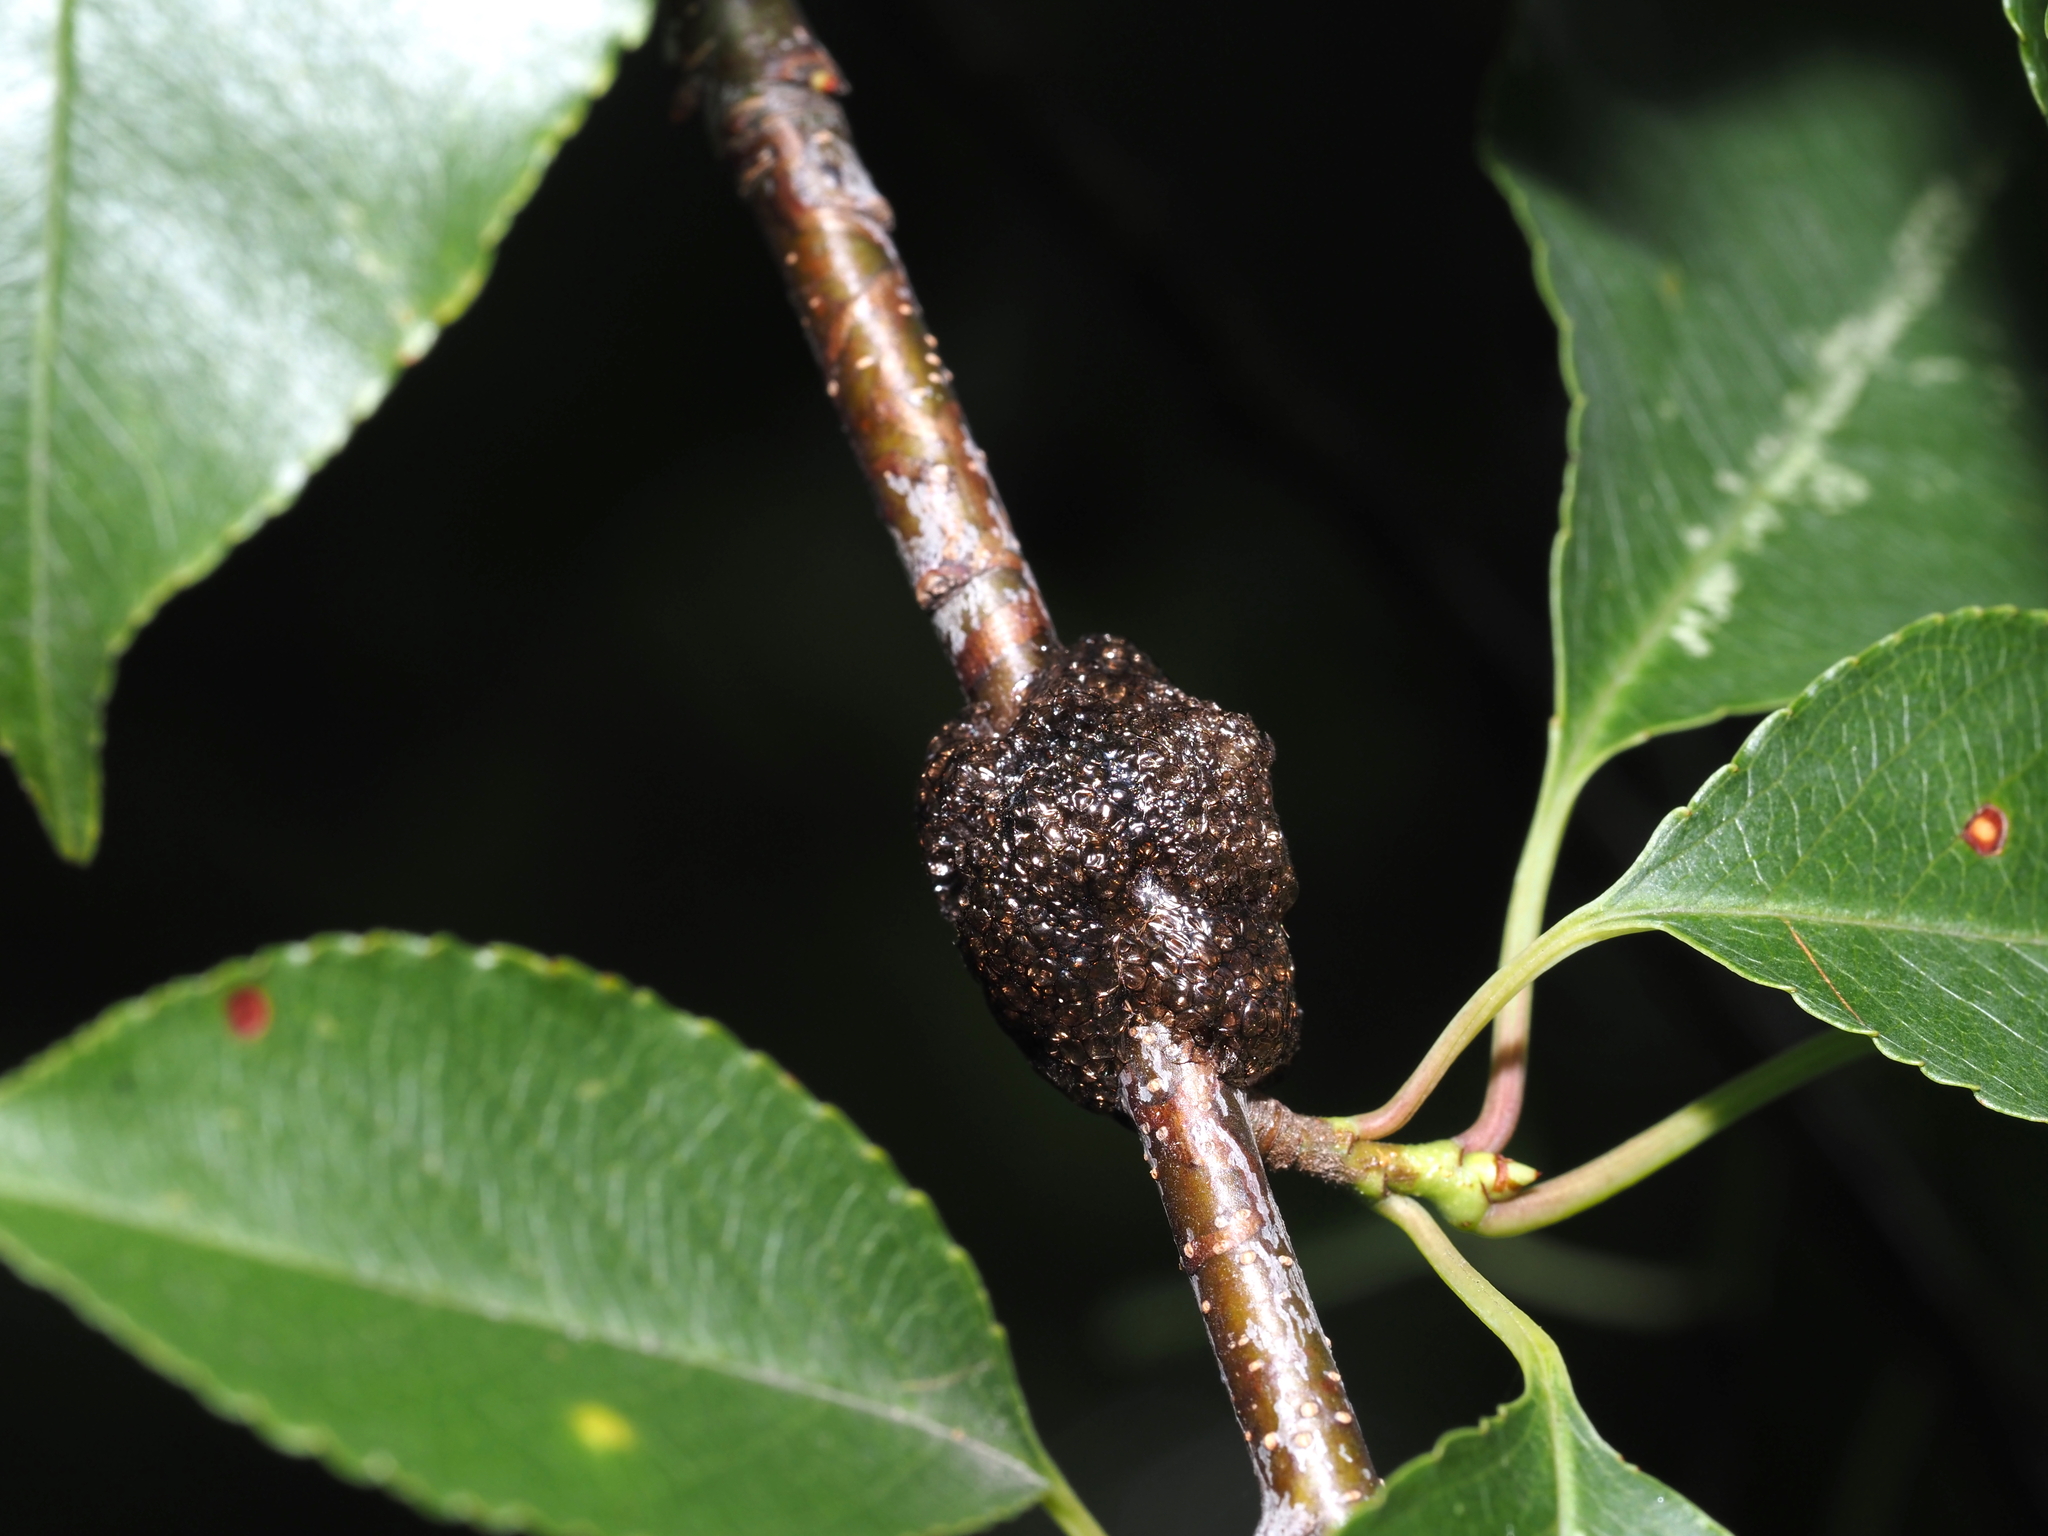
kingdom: Animalia
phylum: Arthropoda
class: Insecta
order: Lepidoptera
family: Lasiocampidae
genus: Malacosoma
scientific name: Malacosoma americana
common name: Eastern tent caterpillar moth
